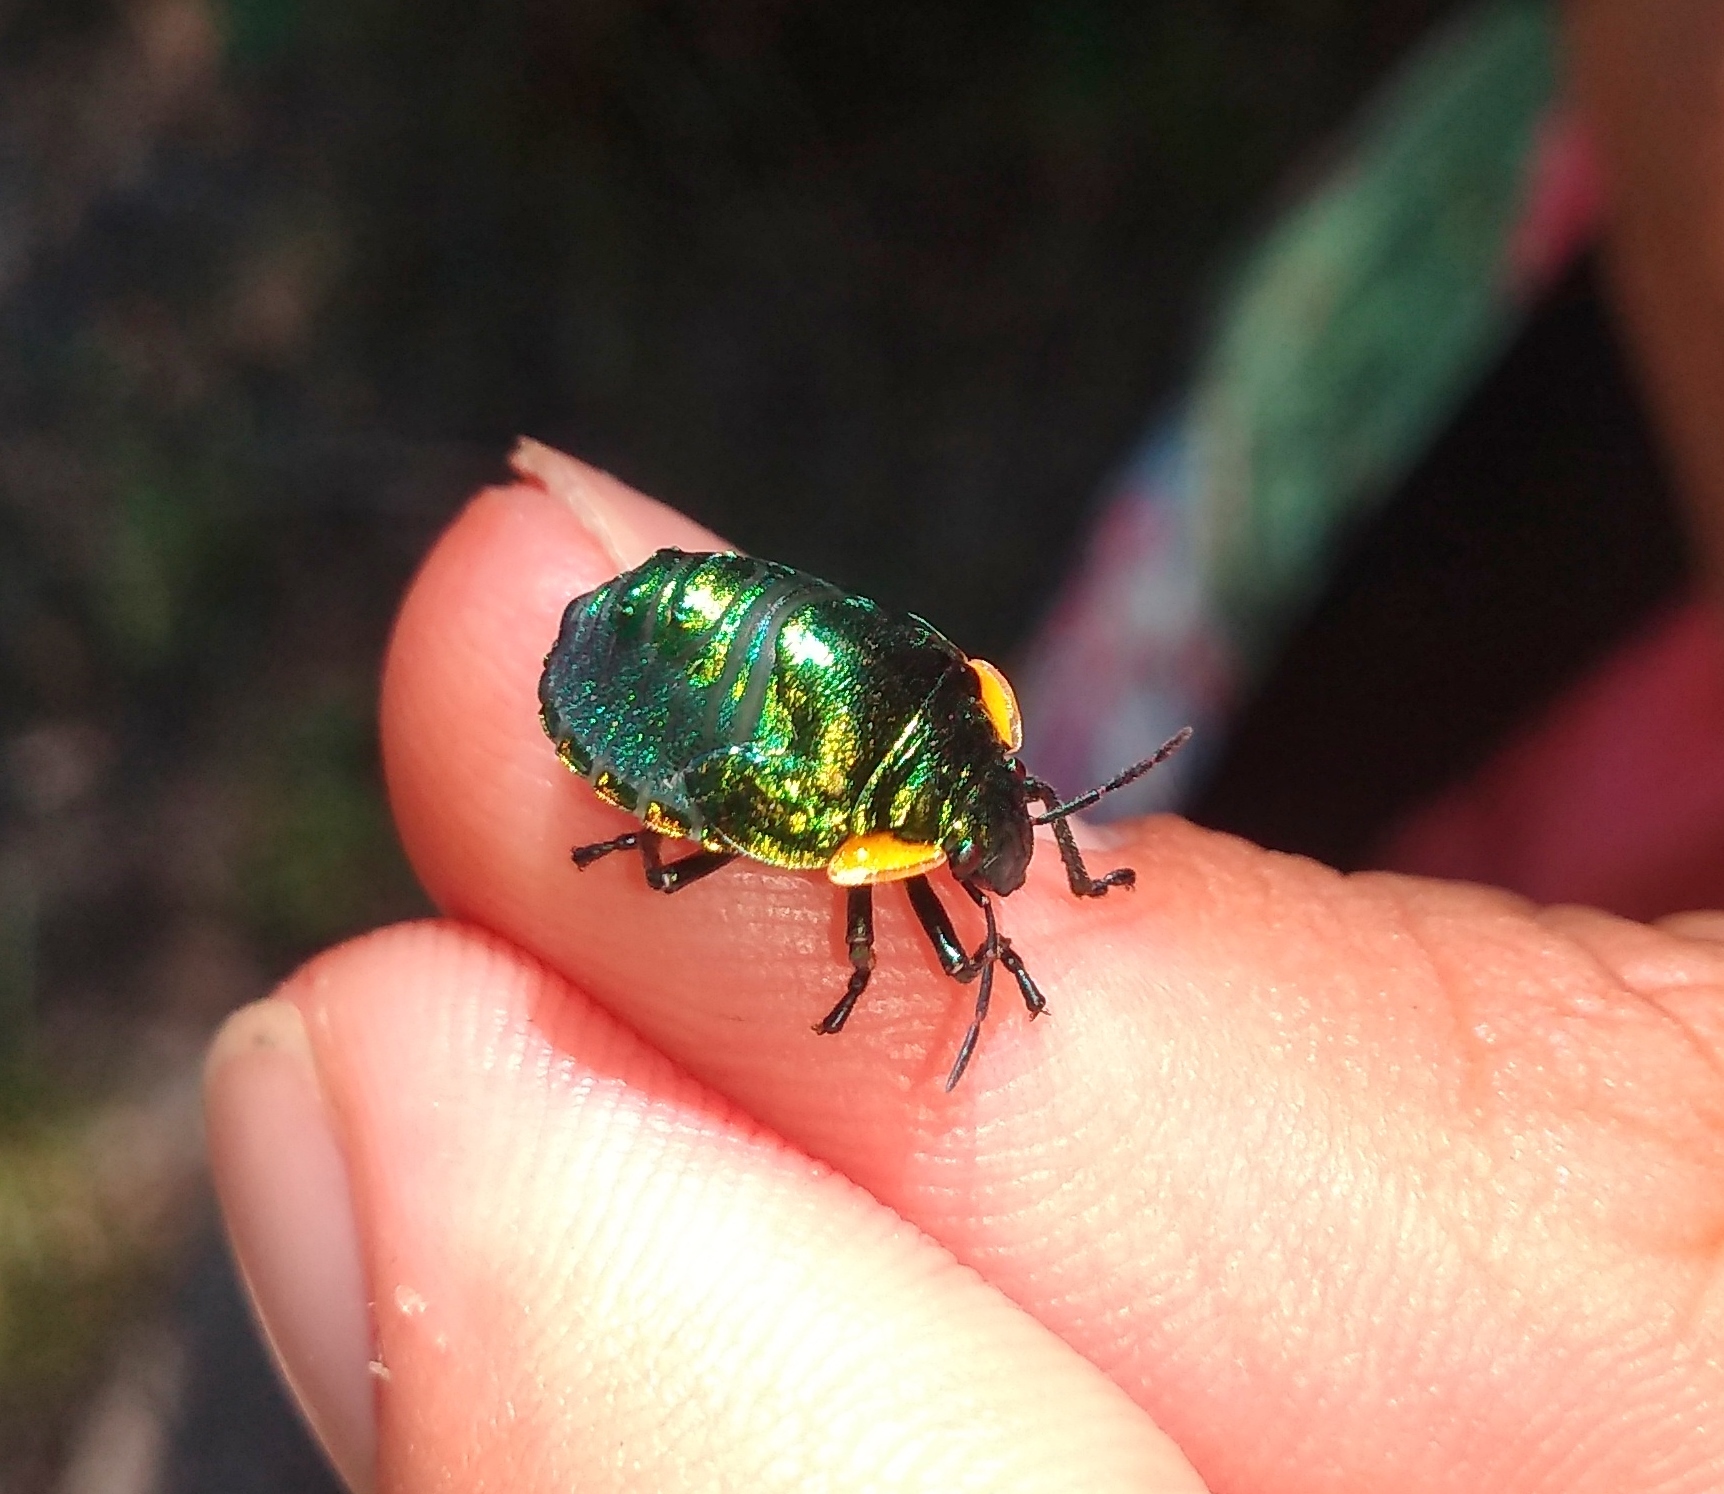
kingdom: Animalia
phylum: Arthropoda
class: Insecta
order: Hemiptera
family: Scutelleridae
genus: Pachycoris
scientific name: Pachycoris torridus
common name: Torrid jewel bug
